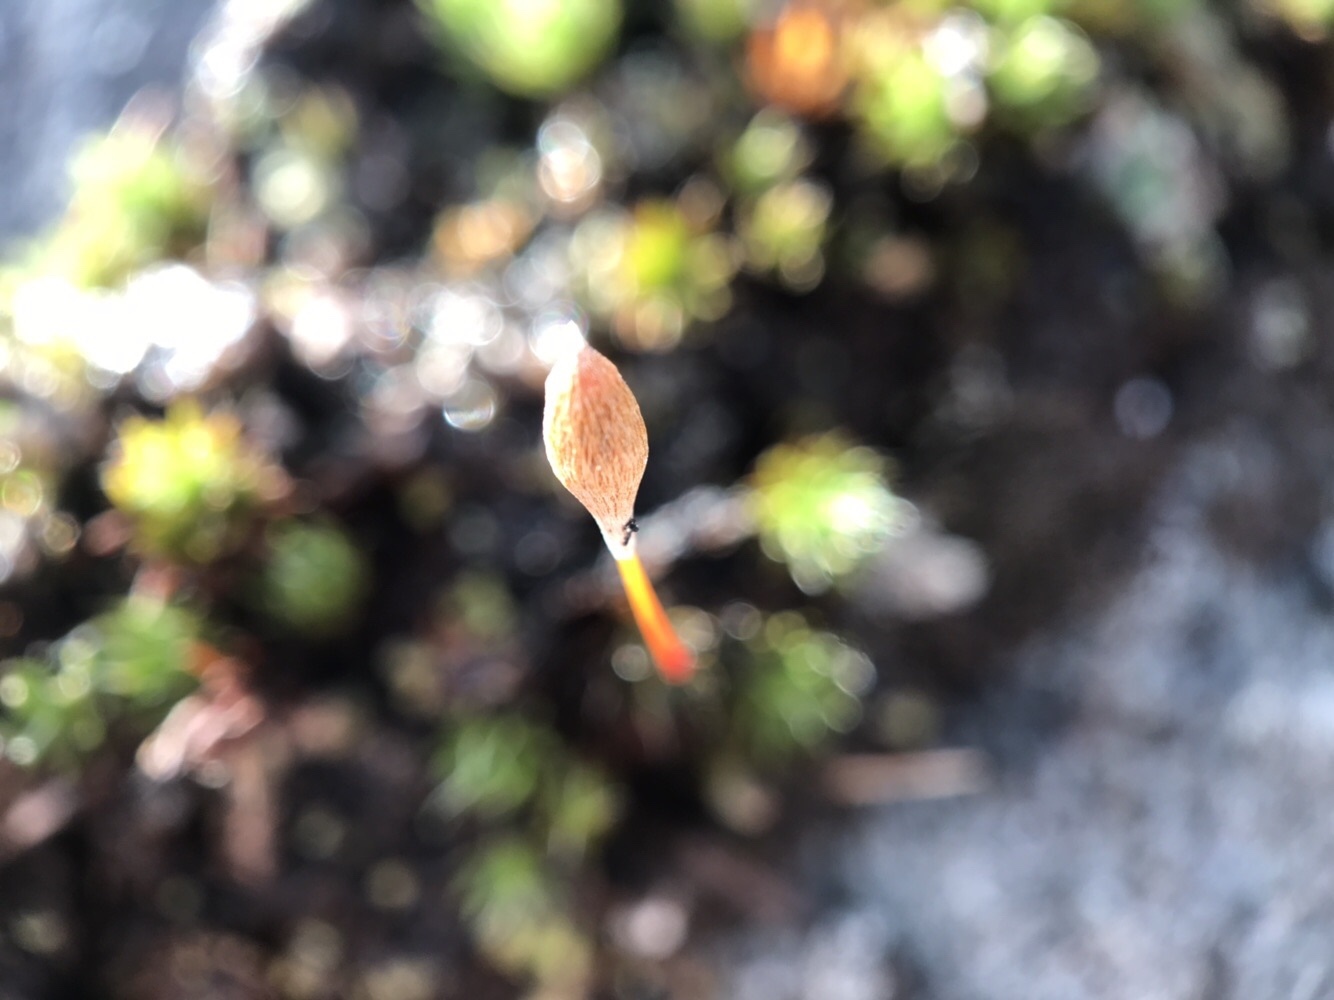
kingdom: Plantae
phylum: Bryophyta
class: Polytrichopsida
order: Polytrichales
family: Polytrichaceae
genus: Polytrichum
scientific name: Polytrichum piliferum
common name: Bristly haircap
